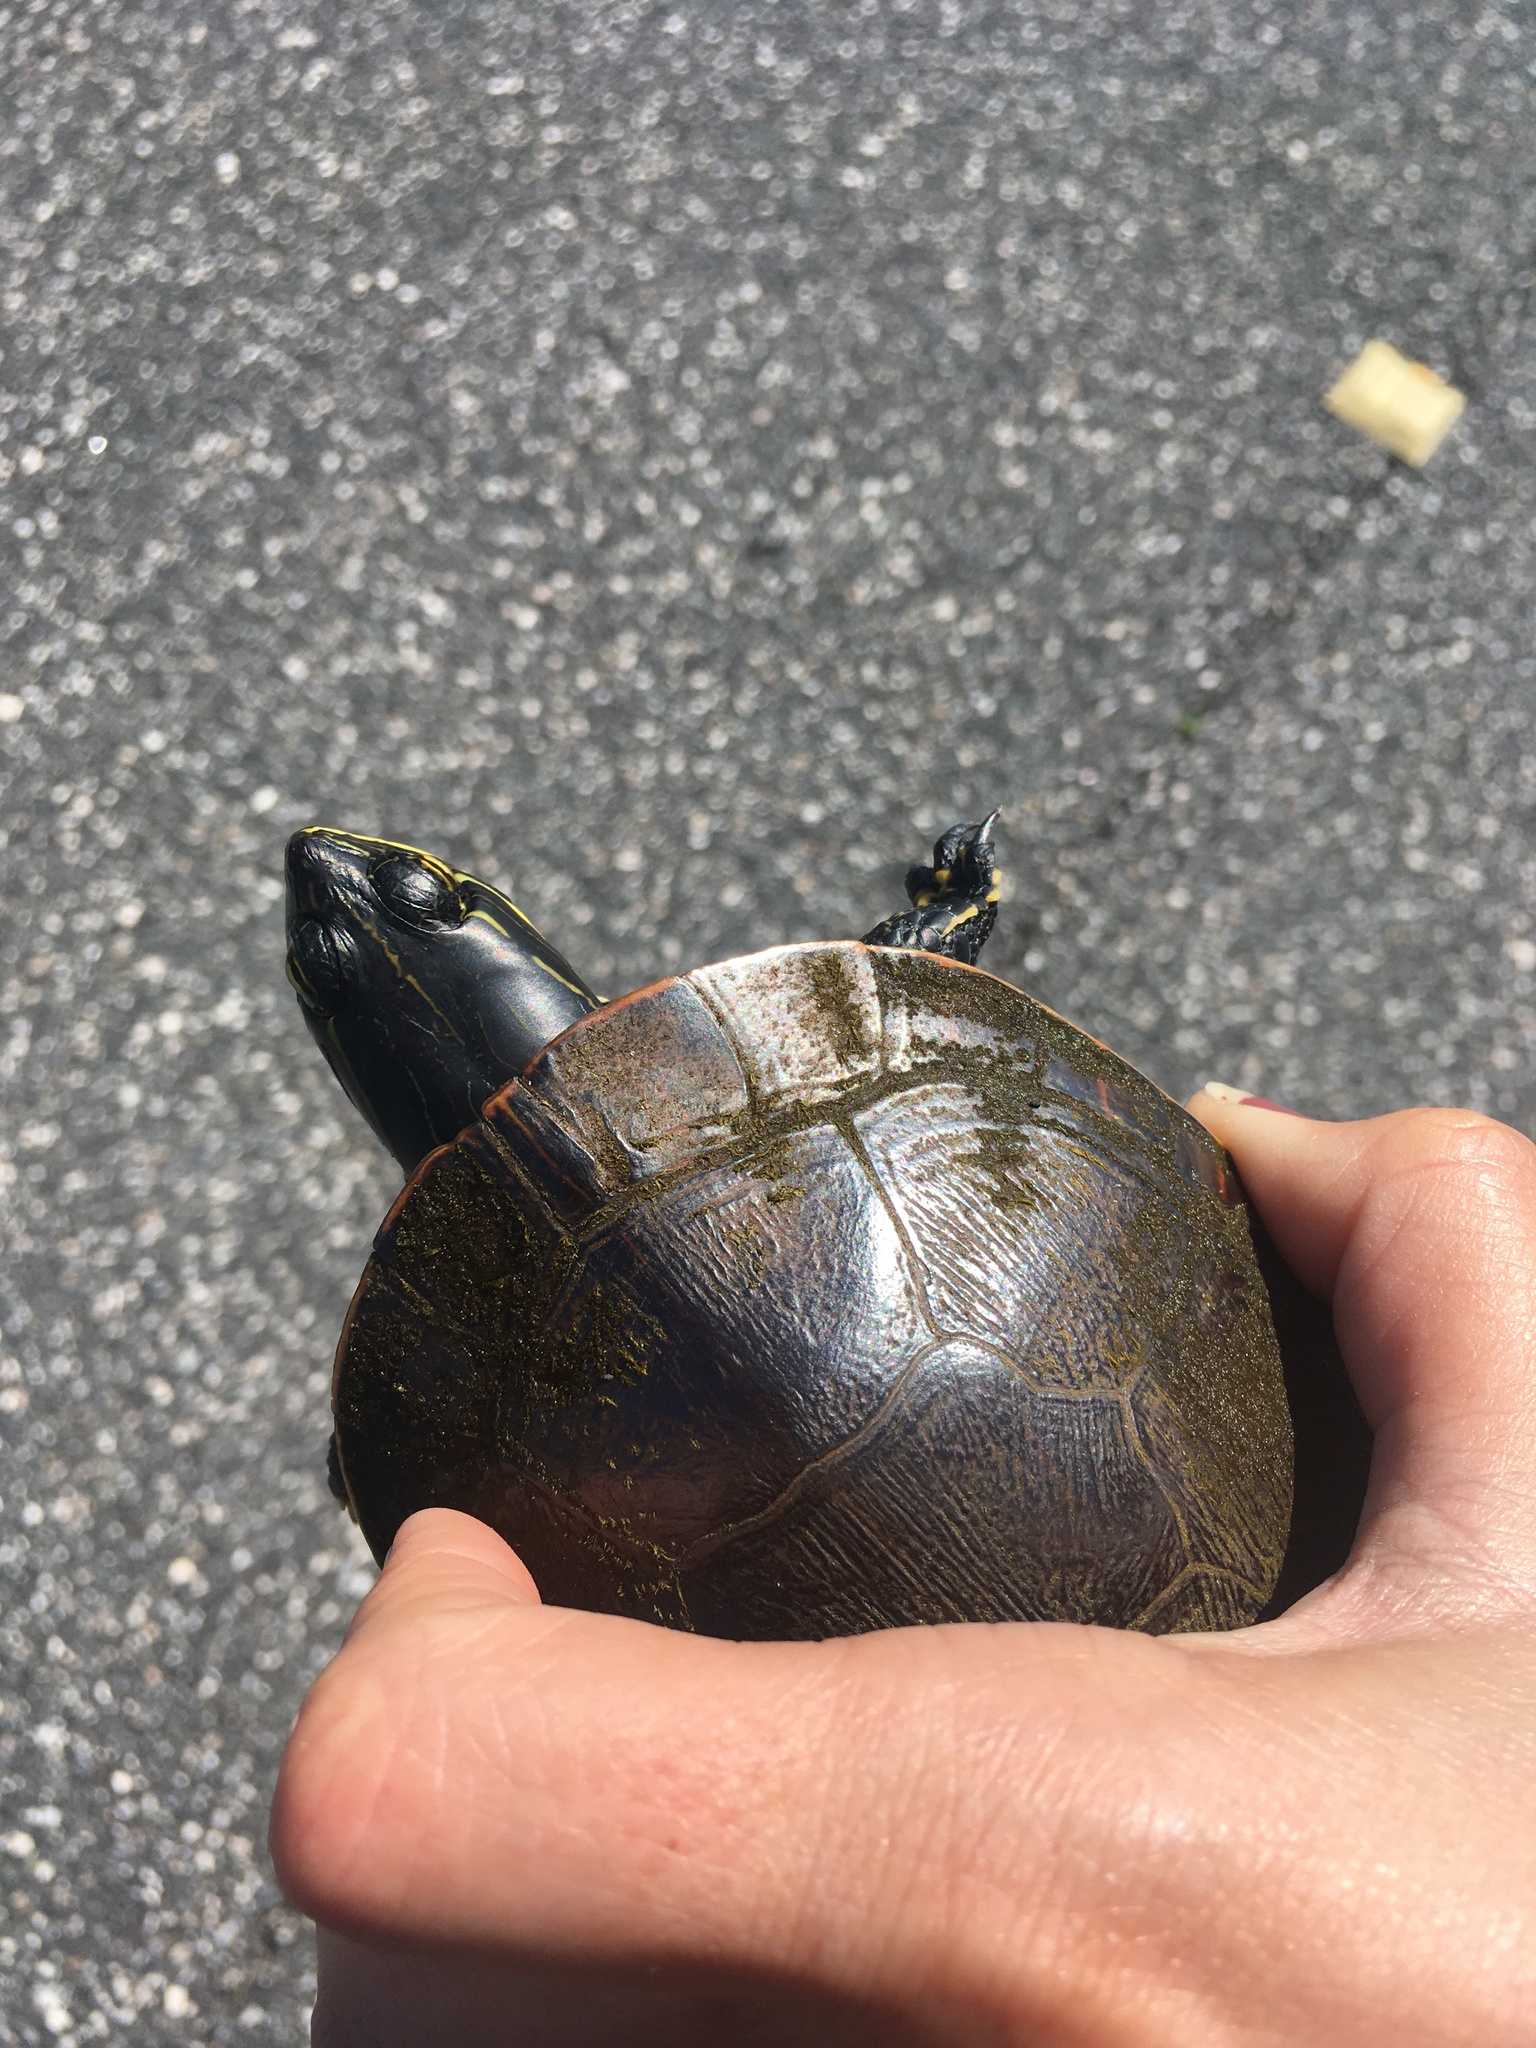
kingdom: Animalia
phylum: Chordata
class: Testudines
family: Emydidae
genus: Deirochelys
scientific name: Deirochelys reticularia
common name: Chicken turtle
